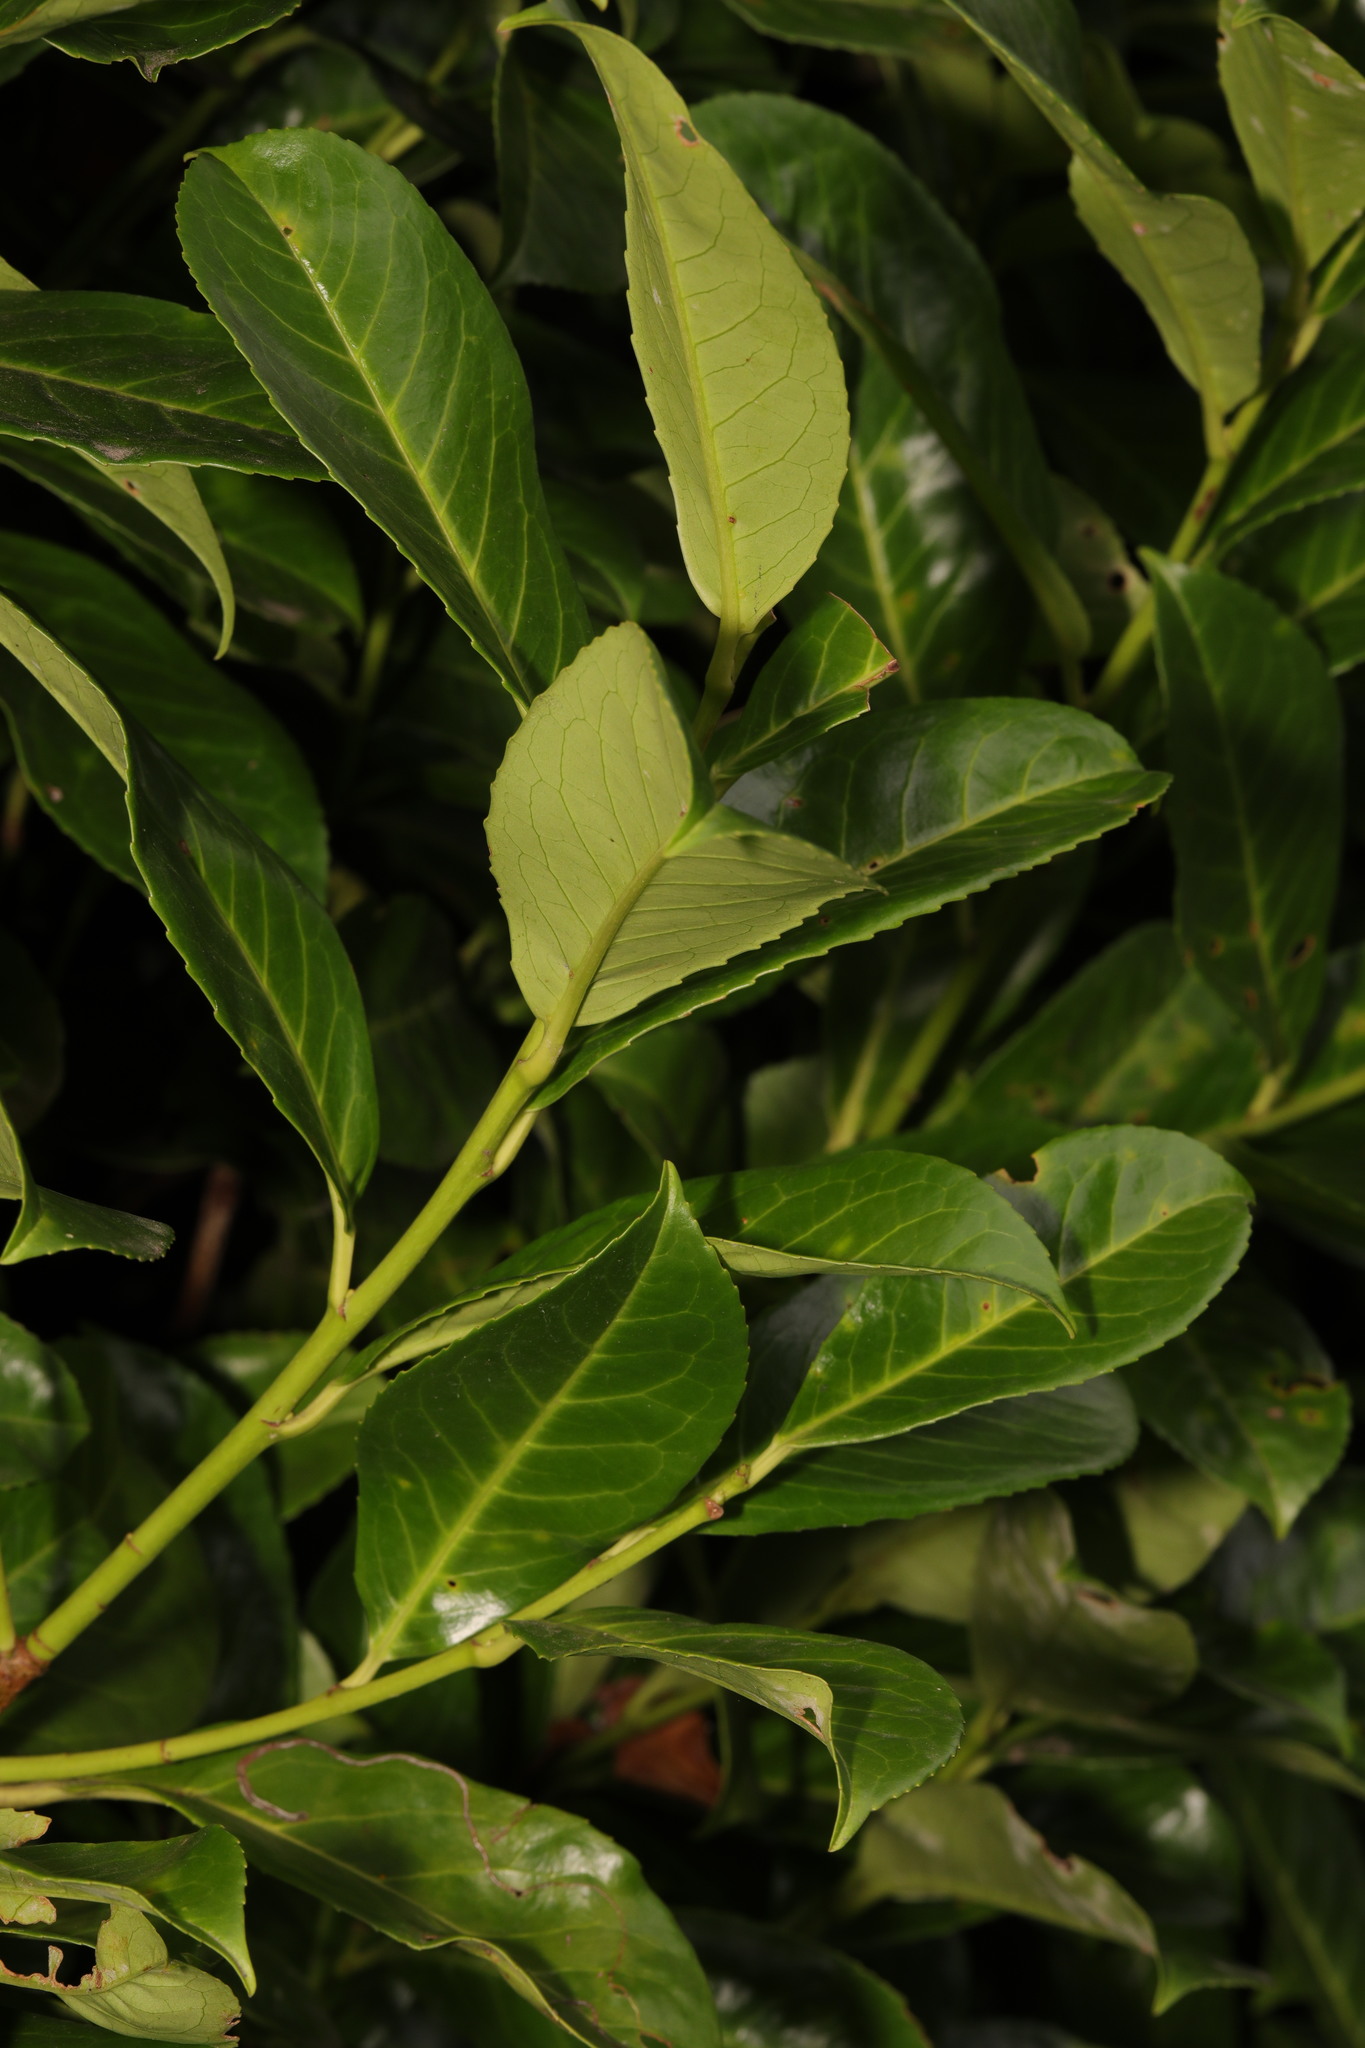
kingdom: Plantae
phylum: Tracheophyta
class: Magnoliopsida
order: Rosales
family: Rosaceae
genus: Prunus
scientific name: Prunus laurocerasus
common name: Cherry laurel
